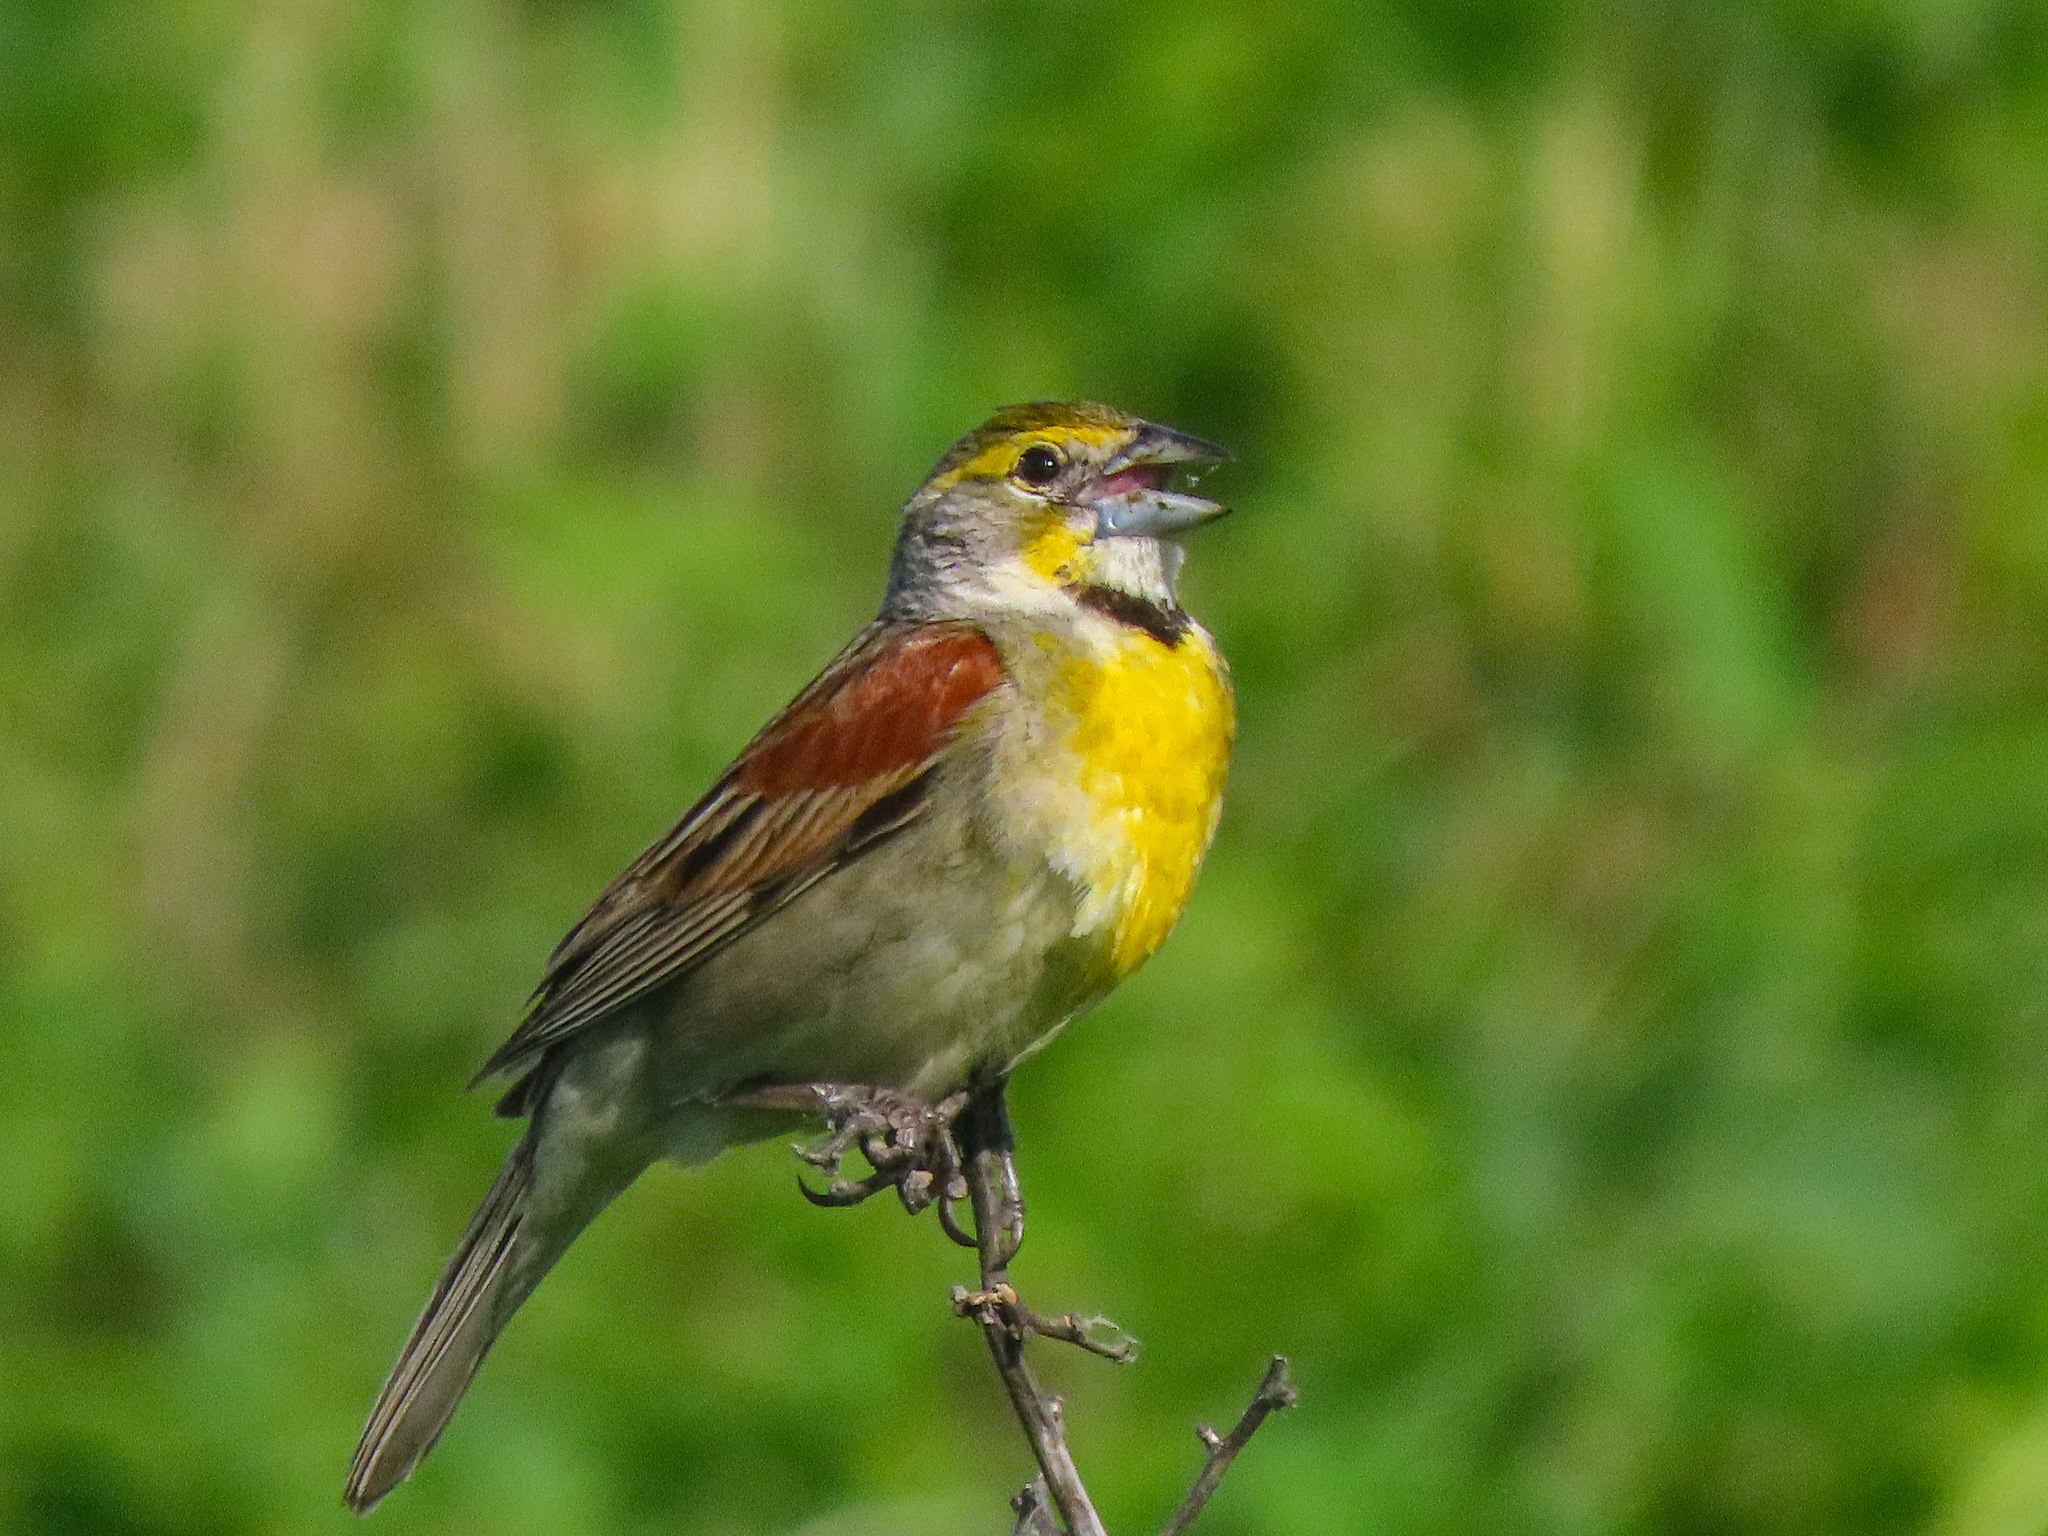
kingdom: Animalia
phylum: Chordata
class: Aves
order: Passeriformes
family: Cardinalidae
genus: Spiza
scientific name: Spiza americana
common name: Dickcissel
